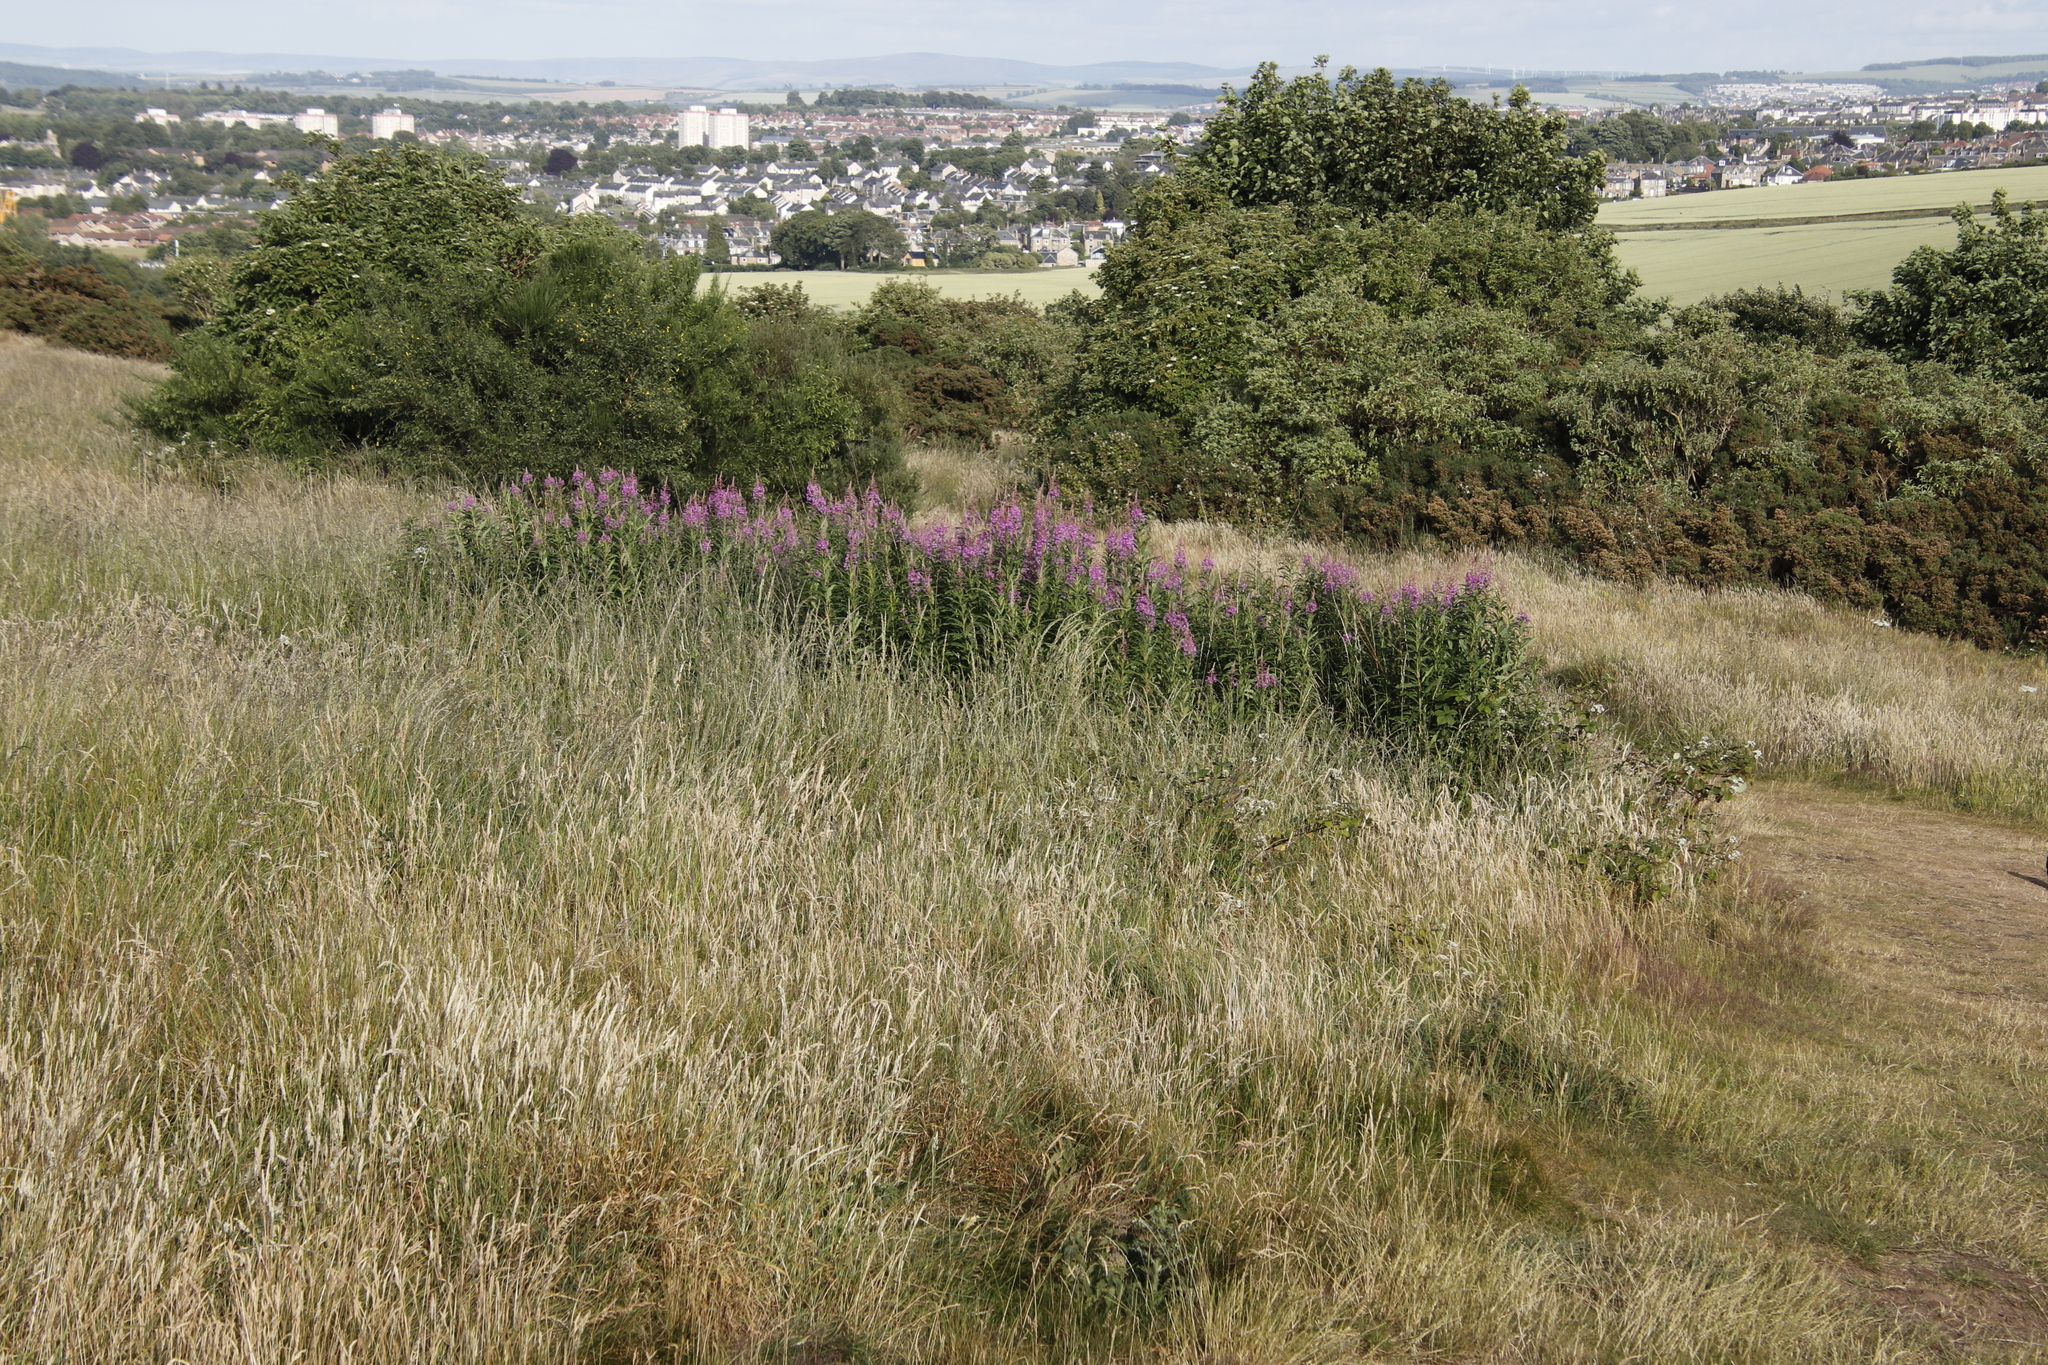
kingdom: Plantae
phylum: Tracheophyta
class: Magnoliopsida
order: Myrtales
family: Onagraceae
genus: Chamaenerion
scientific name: Chamaenerion angustifolium
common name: Fireweed
